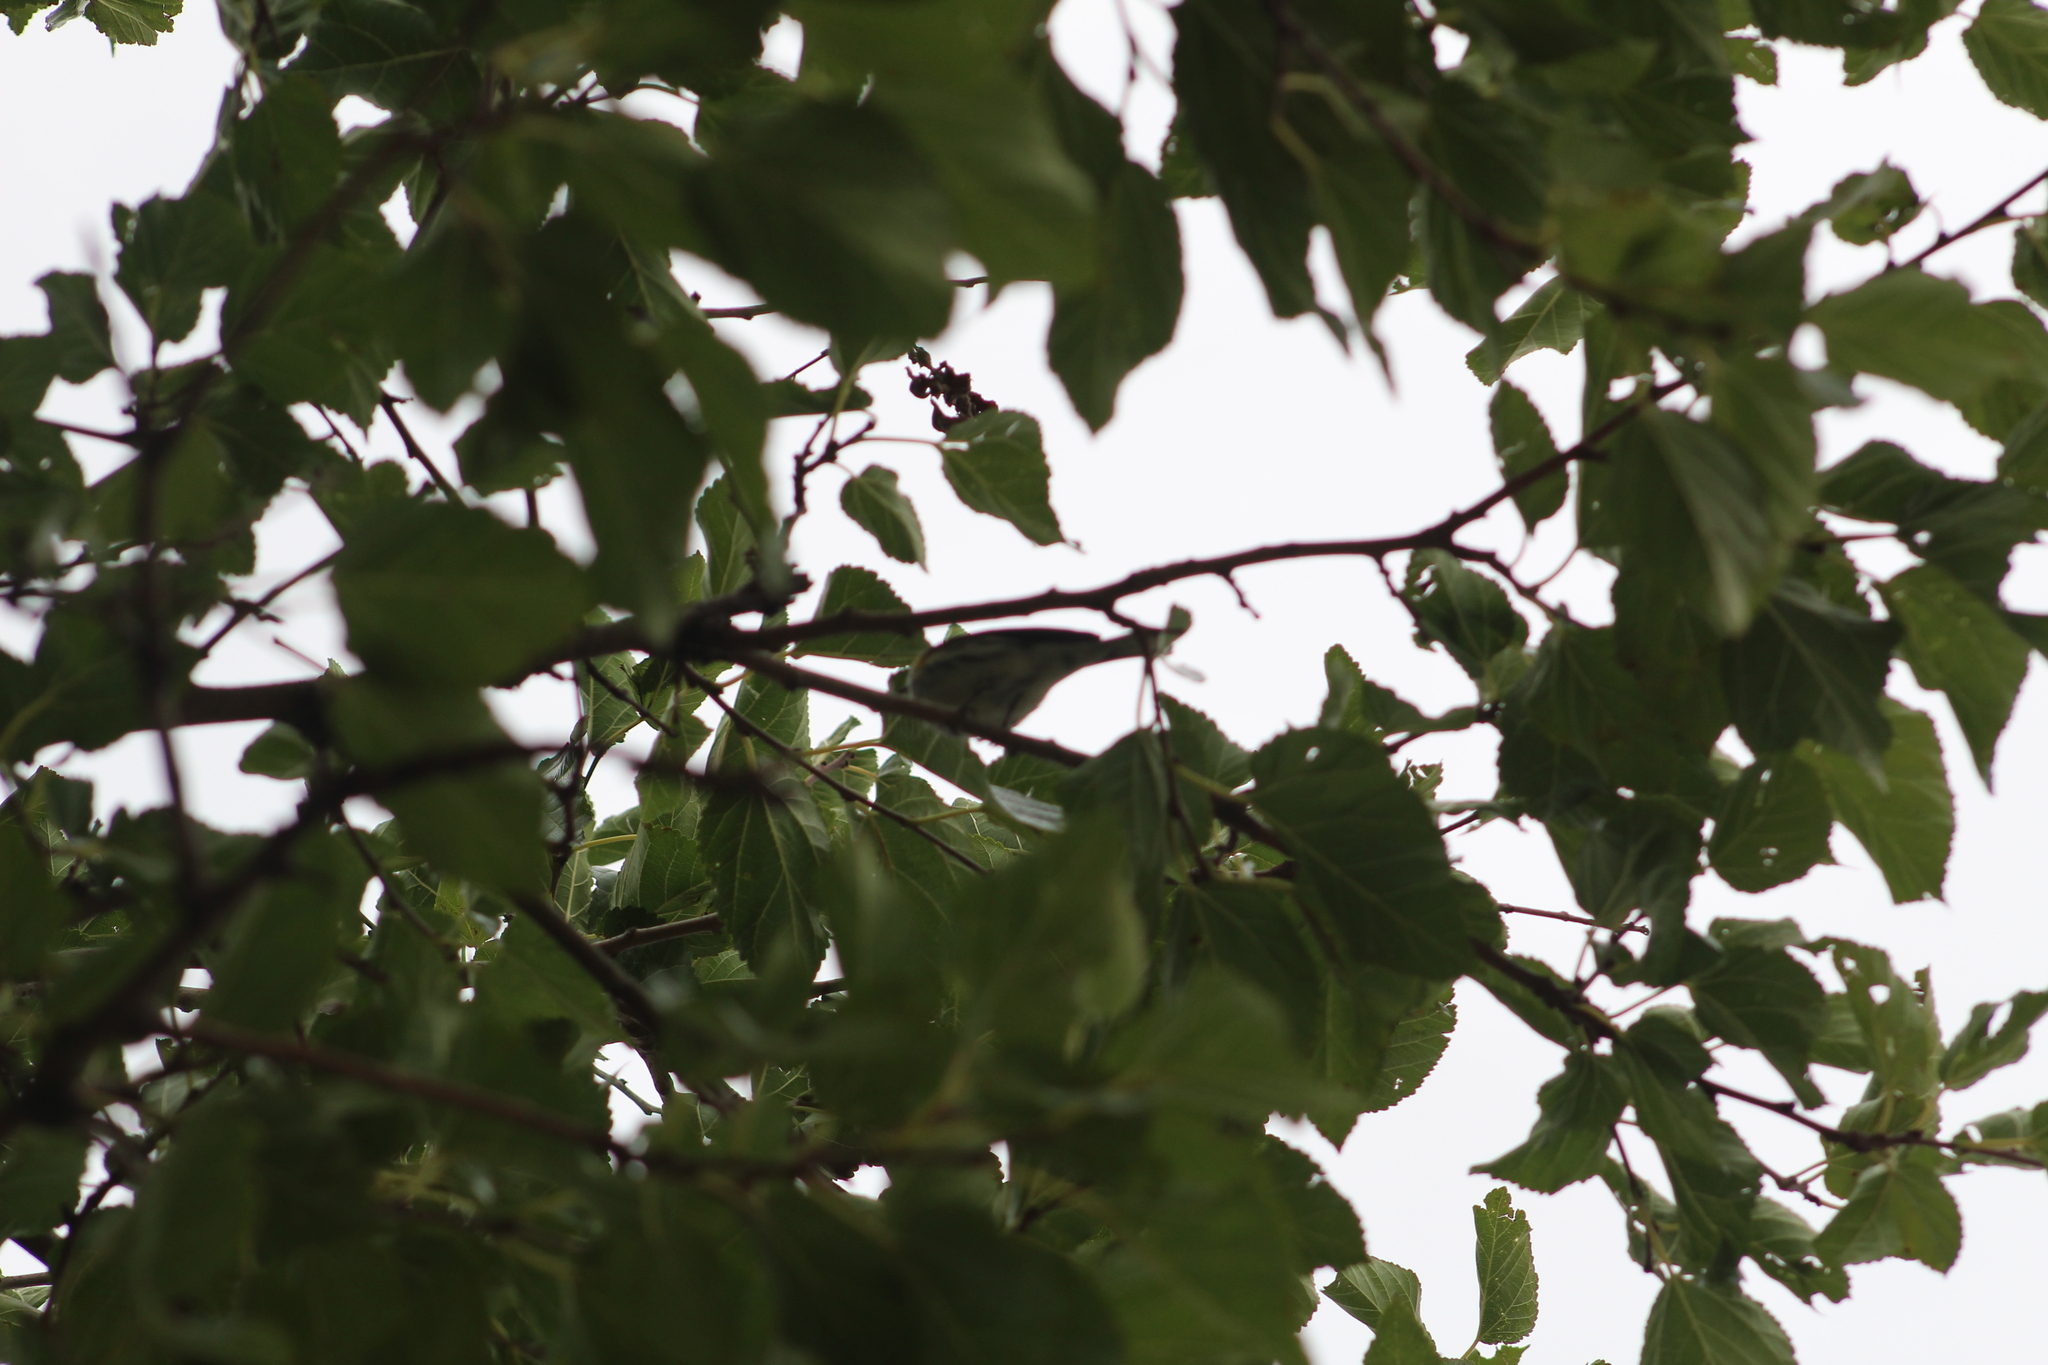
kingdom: Animalia
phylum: Chordata
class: Aves
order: Passeriformes
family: Parulidae
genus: Setophaga
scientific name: Setophaga coronata
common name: Myrtle warbler
